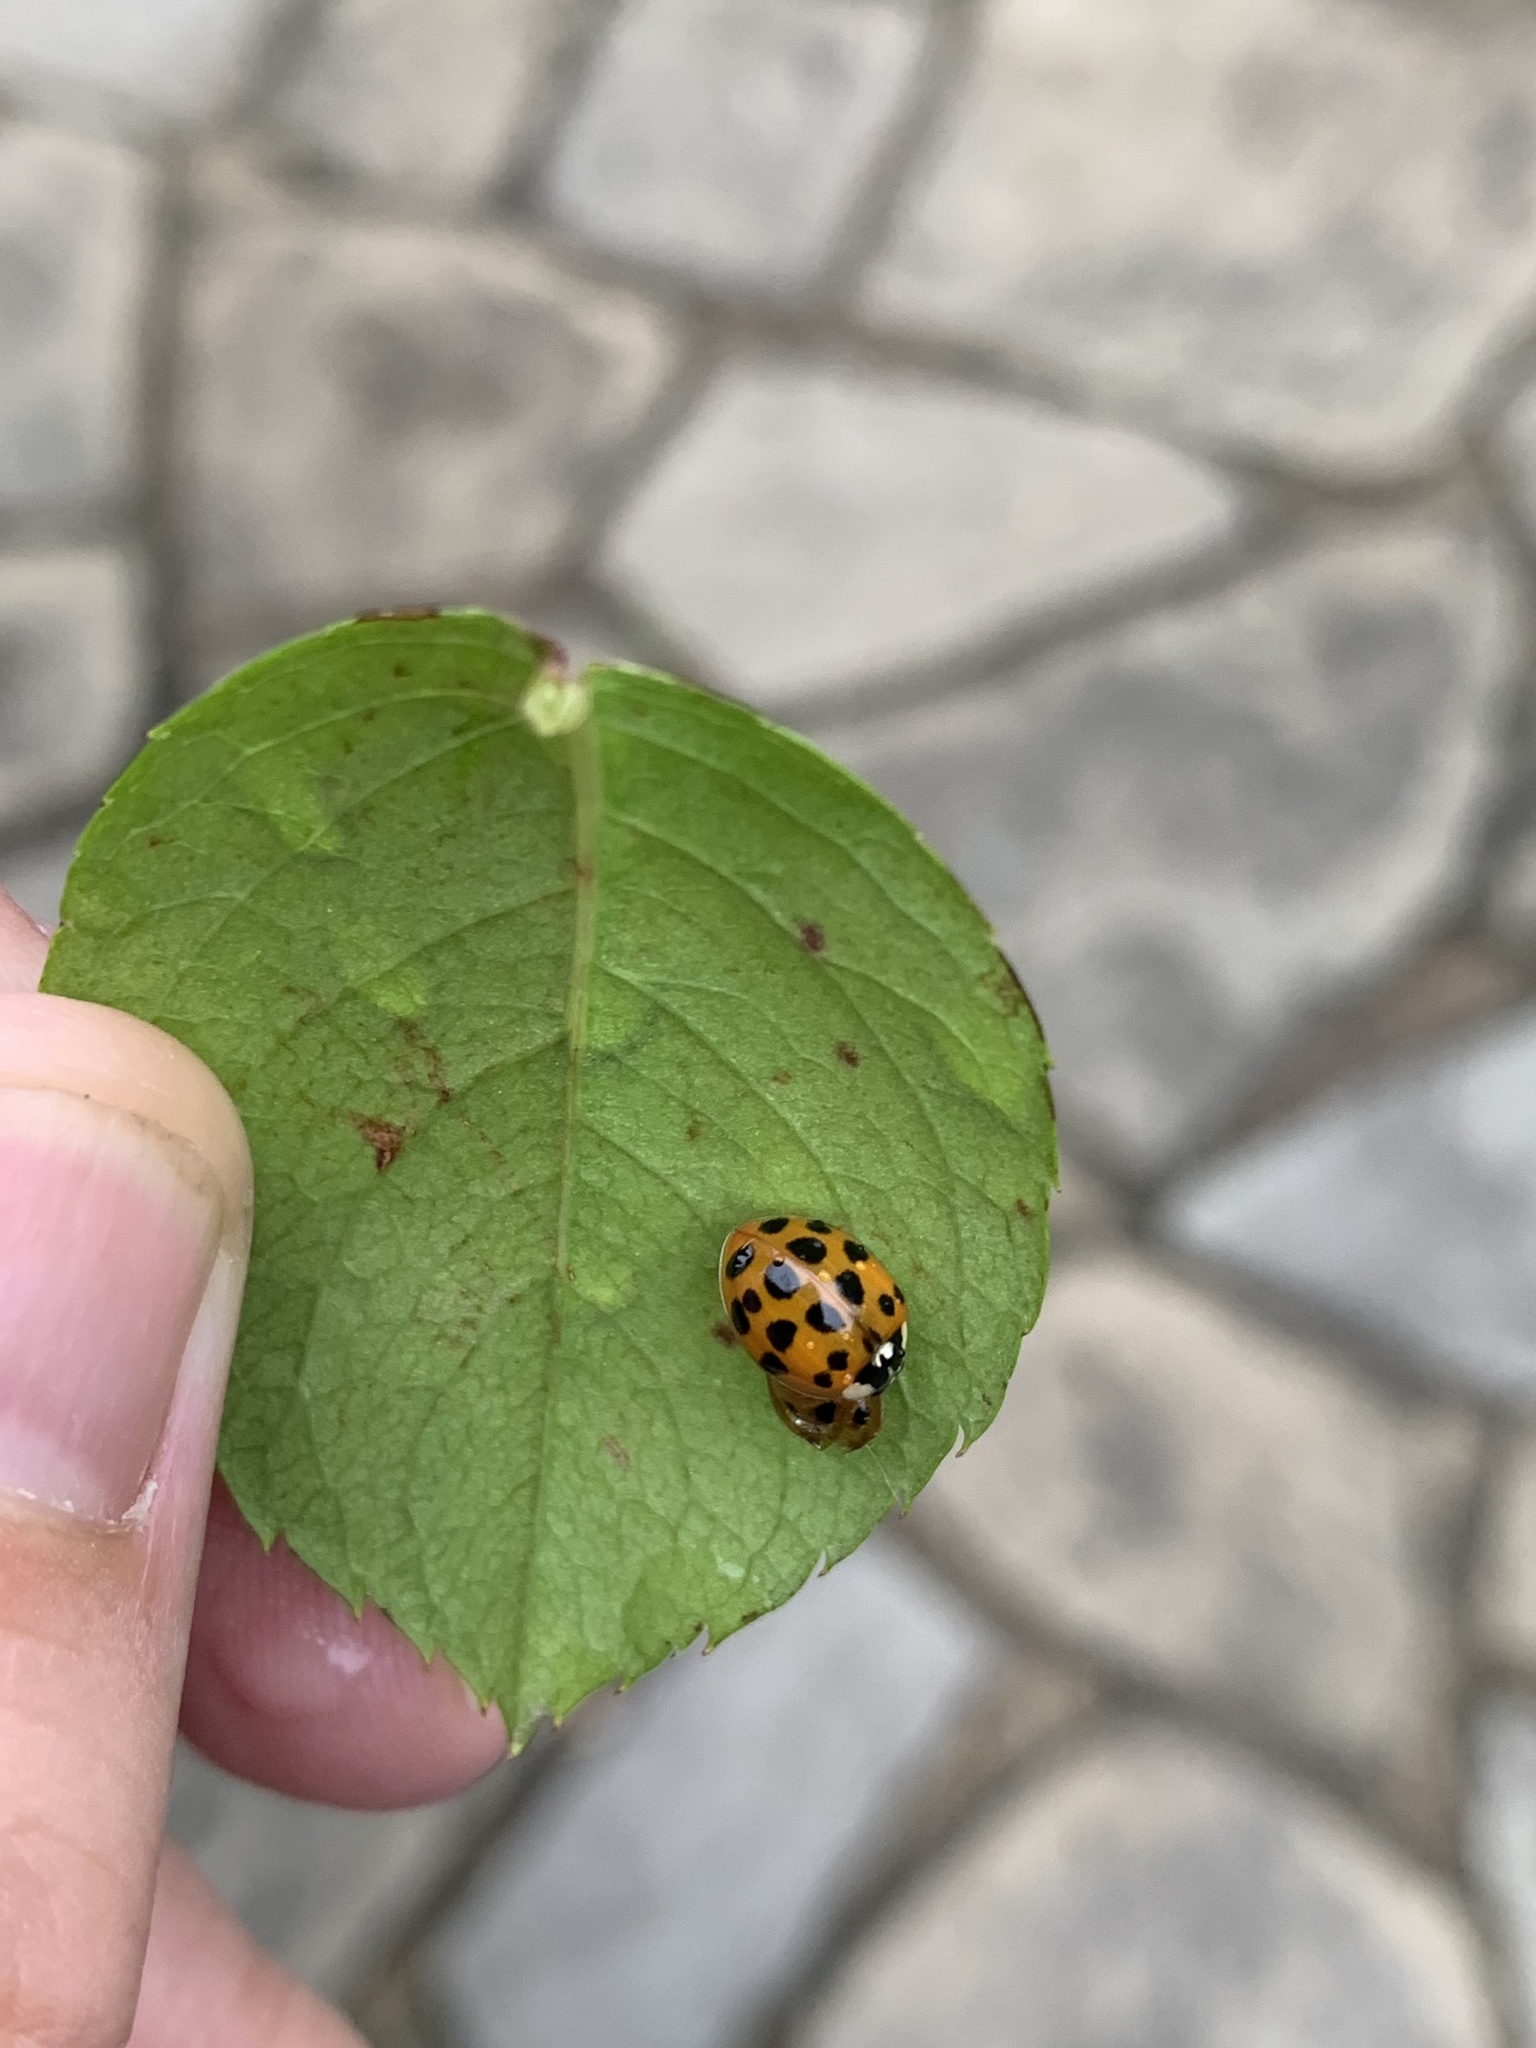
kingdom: Animalia
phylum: Arthropoda
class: Insecta
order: Coleoptera
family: Coccinellidae
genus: Harmonia
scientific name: Harmonia axyridis
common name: Harlequin ladybird
